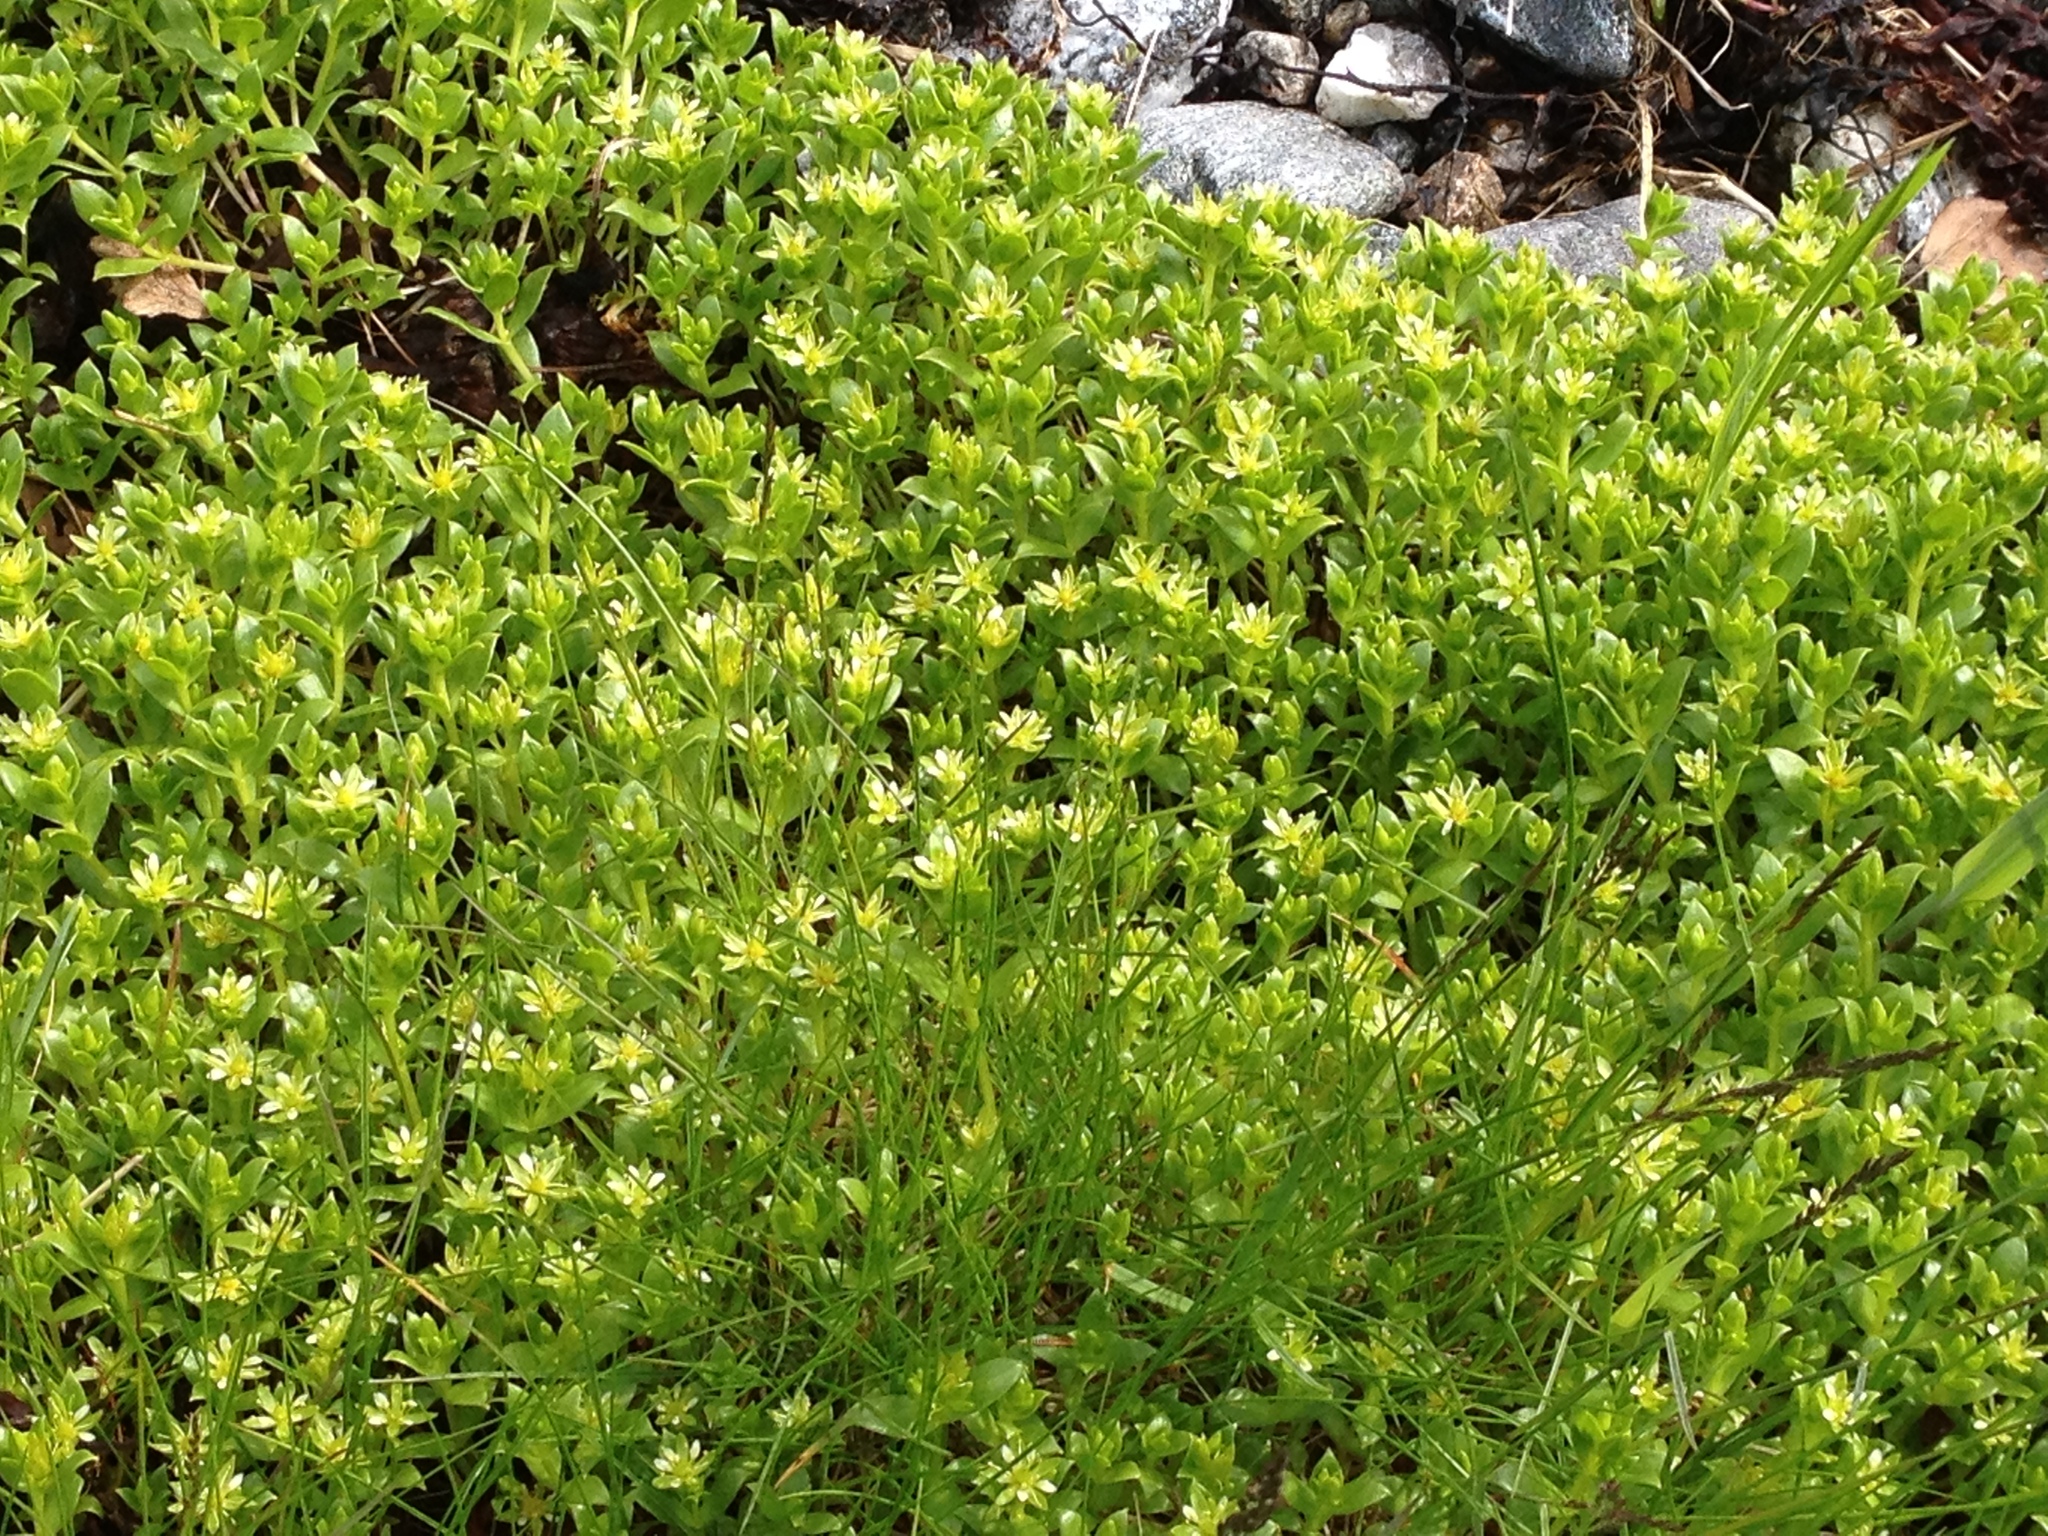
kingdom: Plantae
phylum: Tracheophyta
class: Magnoliopsida
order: Caryophyllales
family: Caryophyllaceae
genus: Honckenya
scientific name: Honckenya peploides
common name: Sea sandwort
